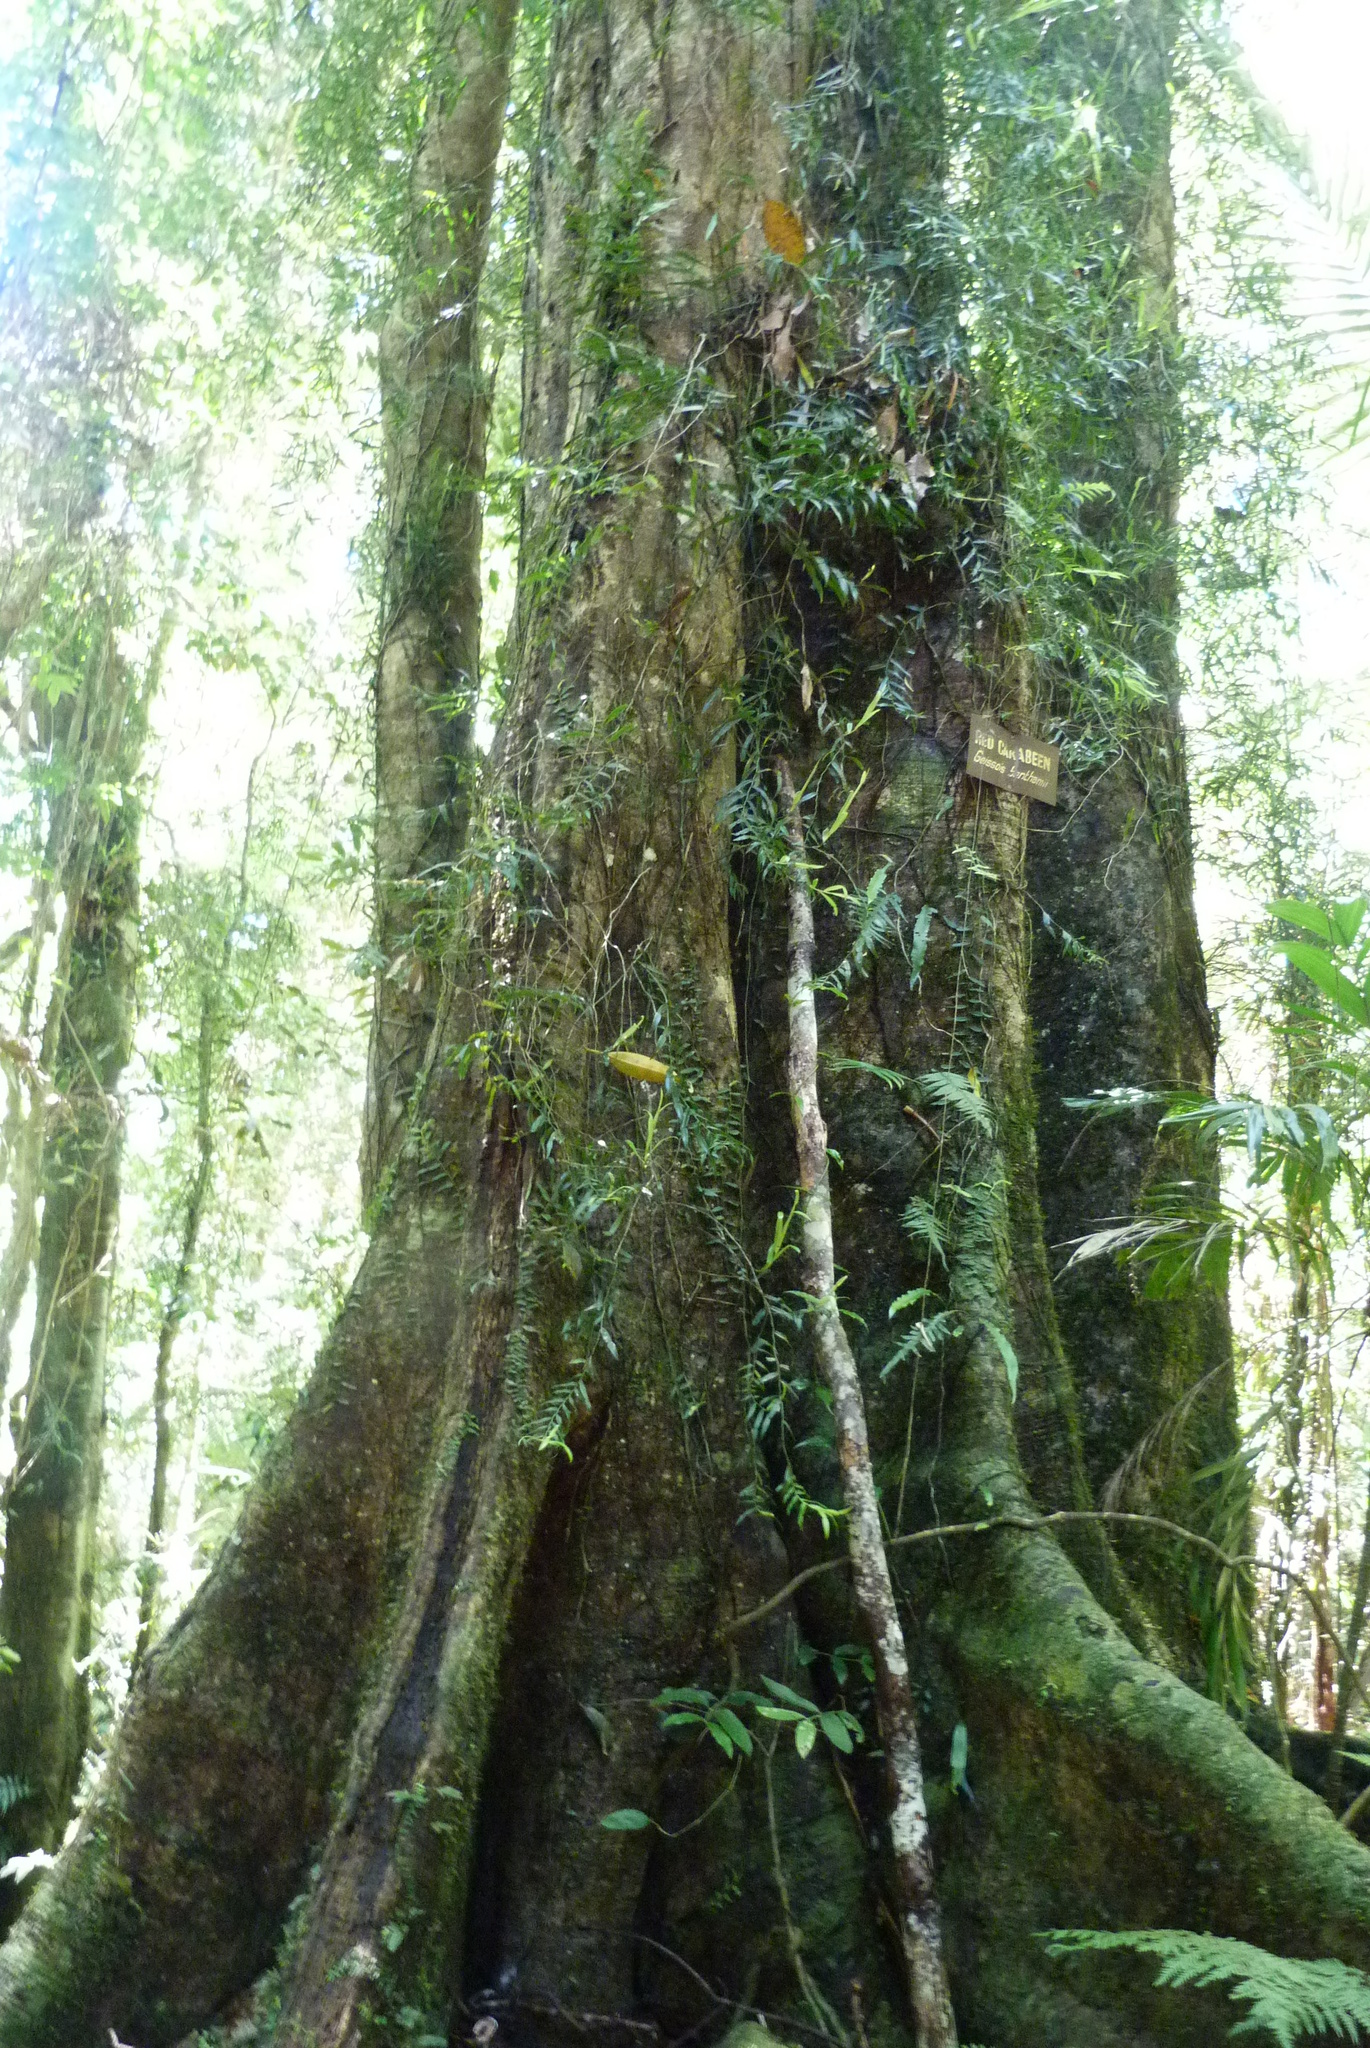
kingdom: Plantae
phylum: Tracheophyta
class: Magnoliopsida
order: Oxalidales
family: Cunoniaceae
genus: Karrabina
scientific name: Karrabina benthamiana
